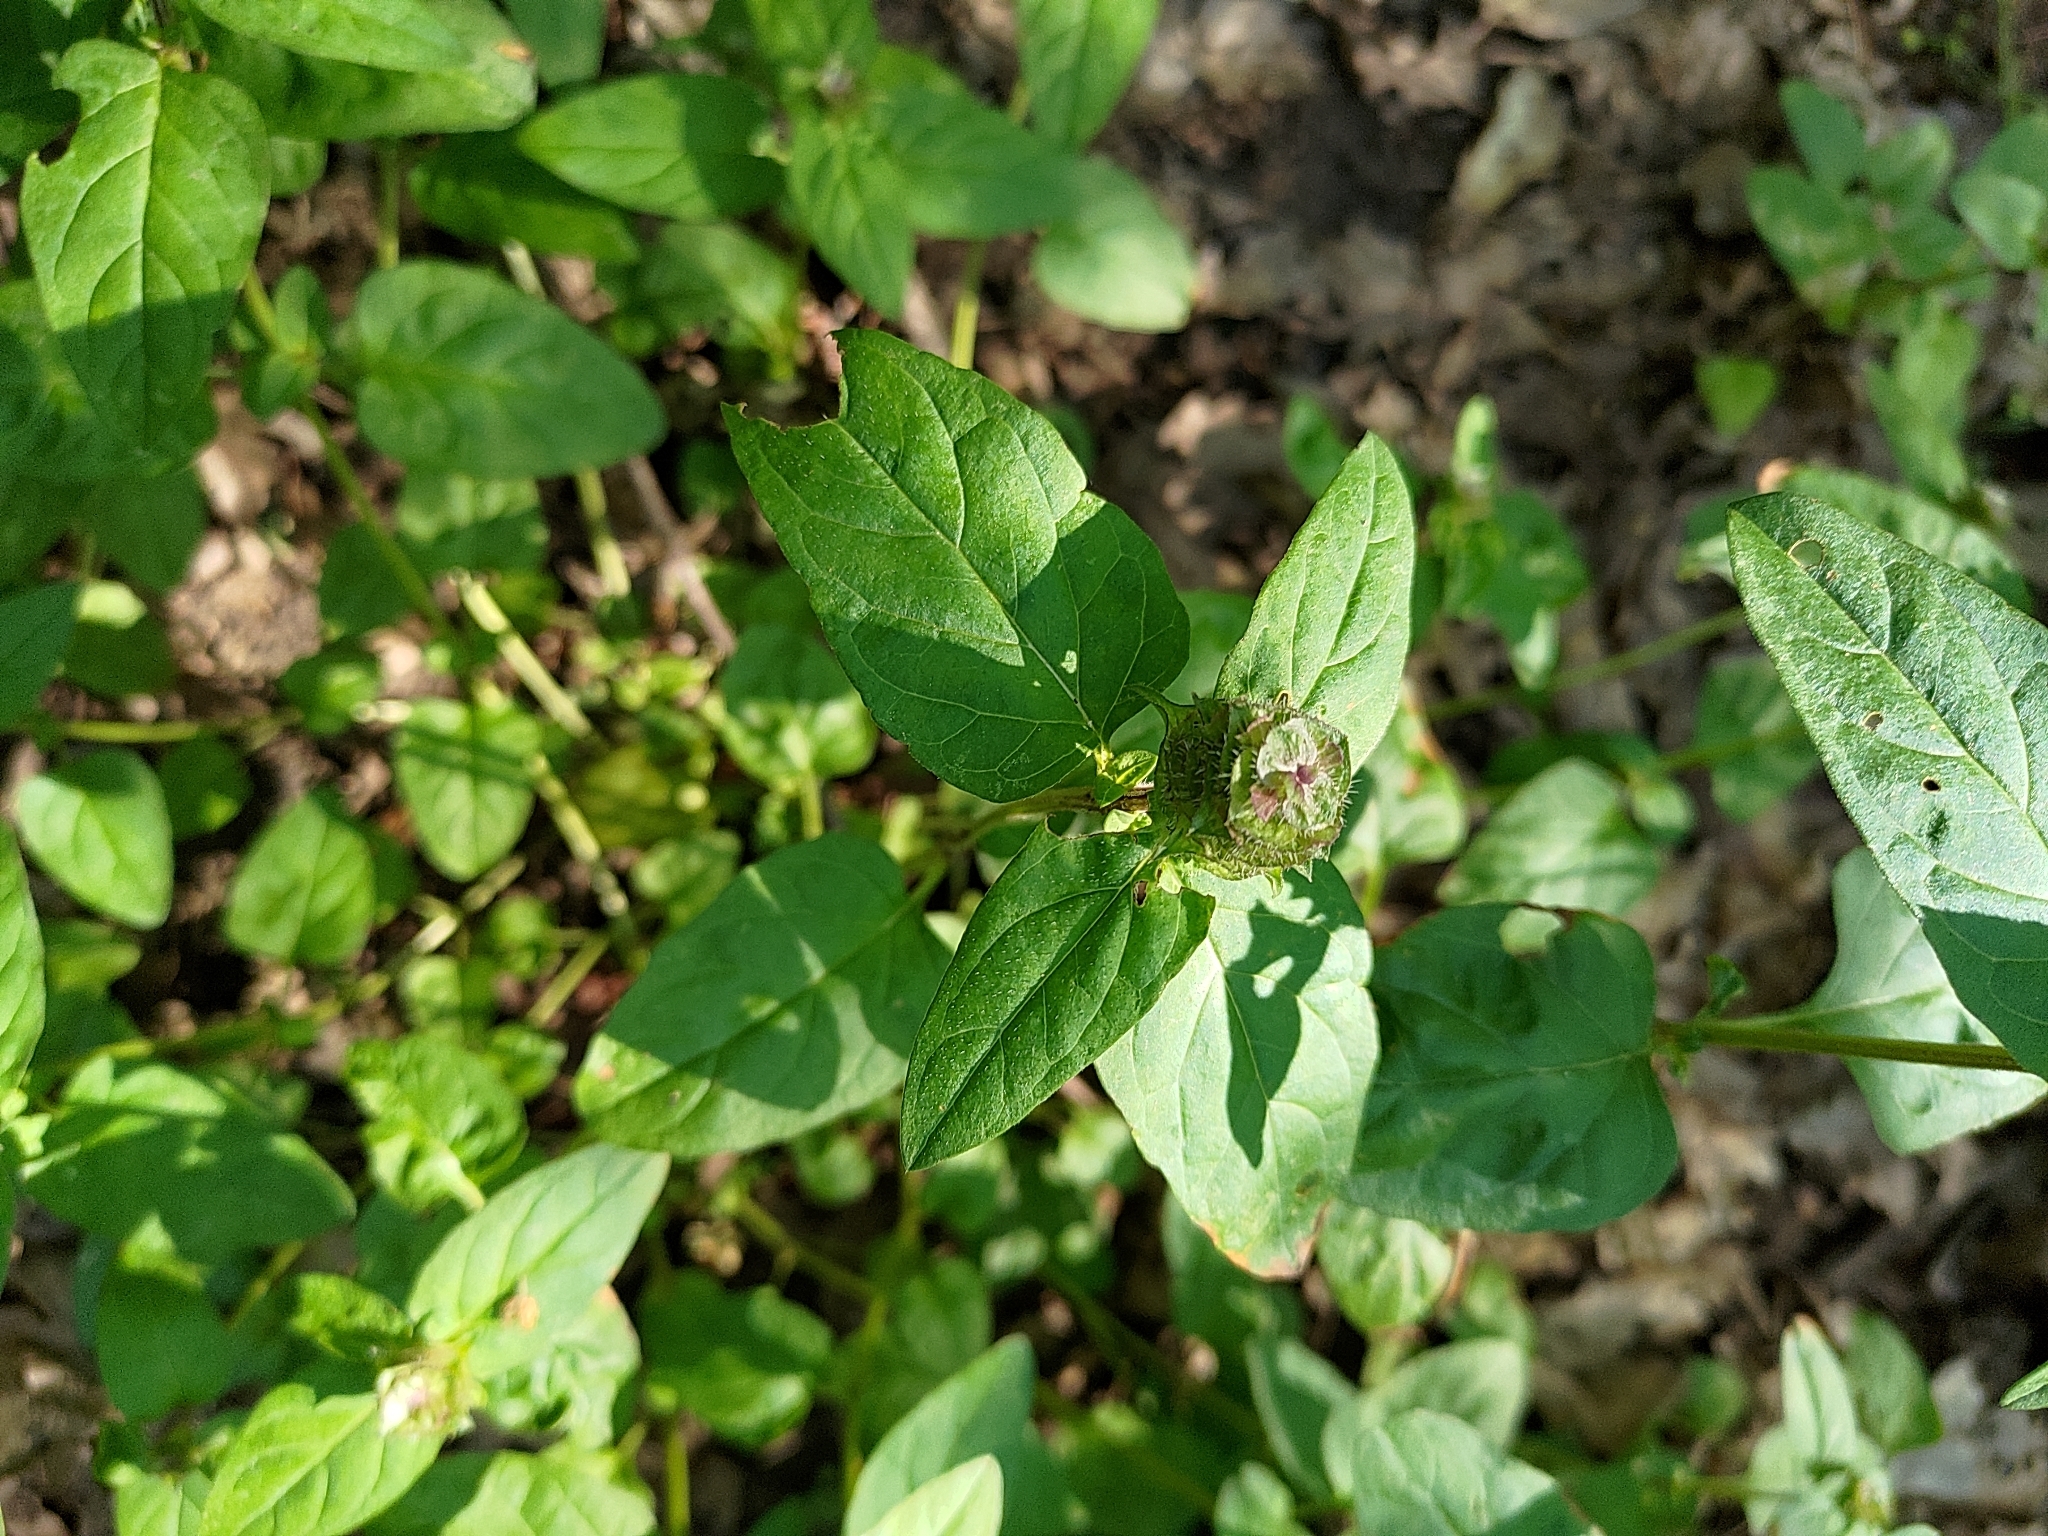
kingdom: Plantae
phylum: Tracheophyta
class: Magnoliopsida
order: Lamiales
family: Lamiaceae
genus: Prunella
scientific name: Prunella vulgaris
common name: Heal-all
